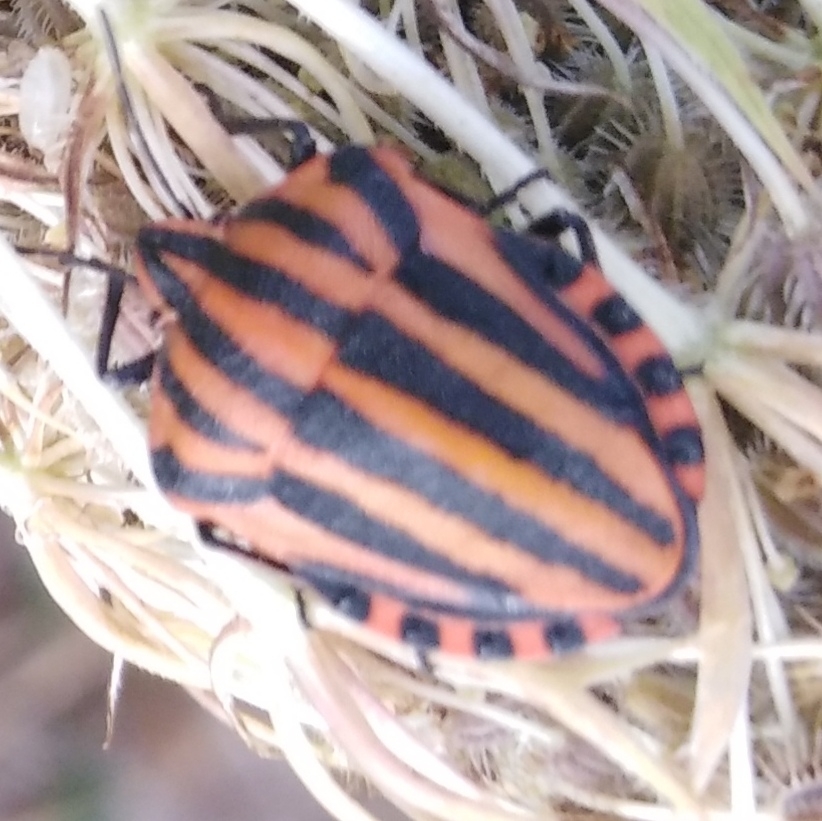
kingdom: Animalia
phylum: Arthropoda
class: Insecta
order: Hemiptera
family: Pentatomidae
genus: Graphosoma
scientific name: Graphosoma italicum
